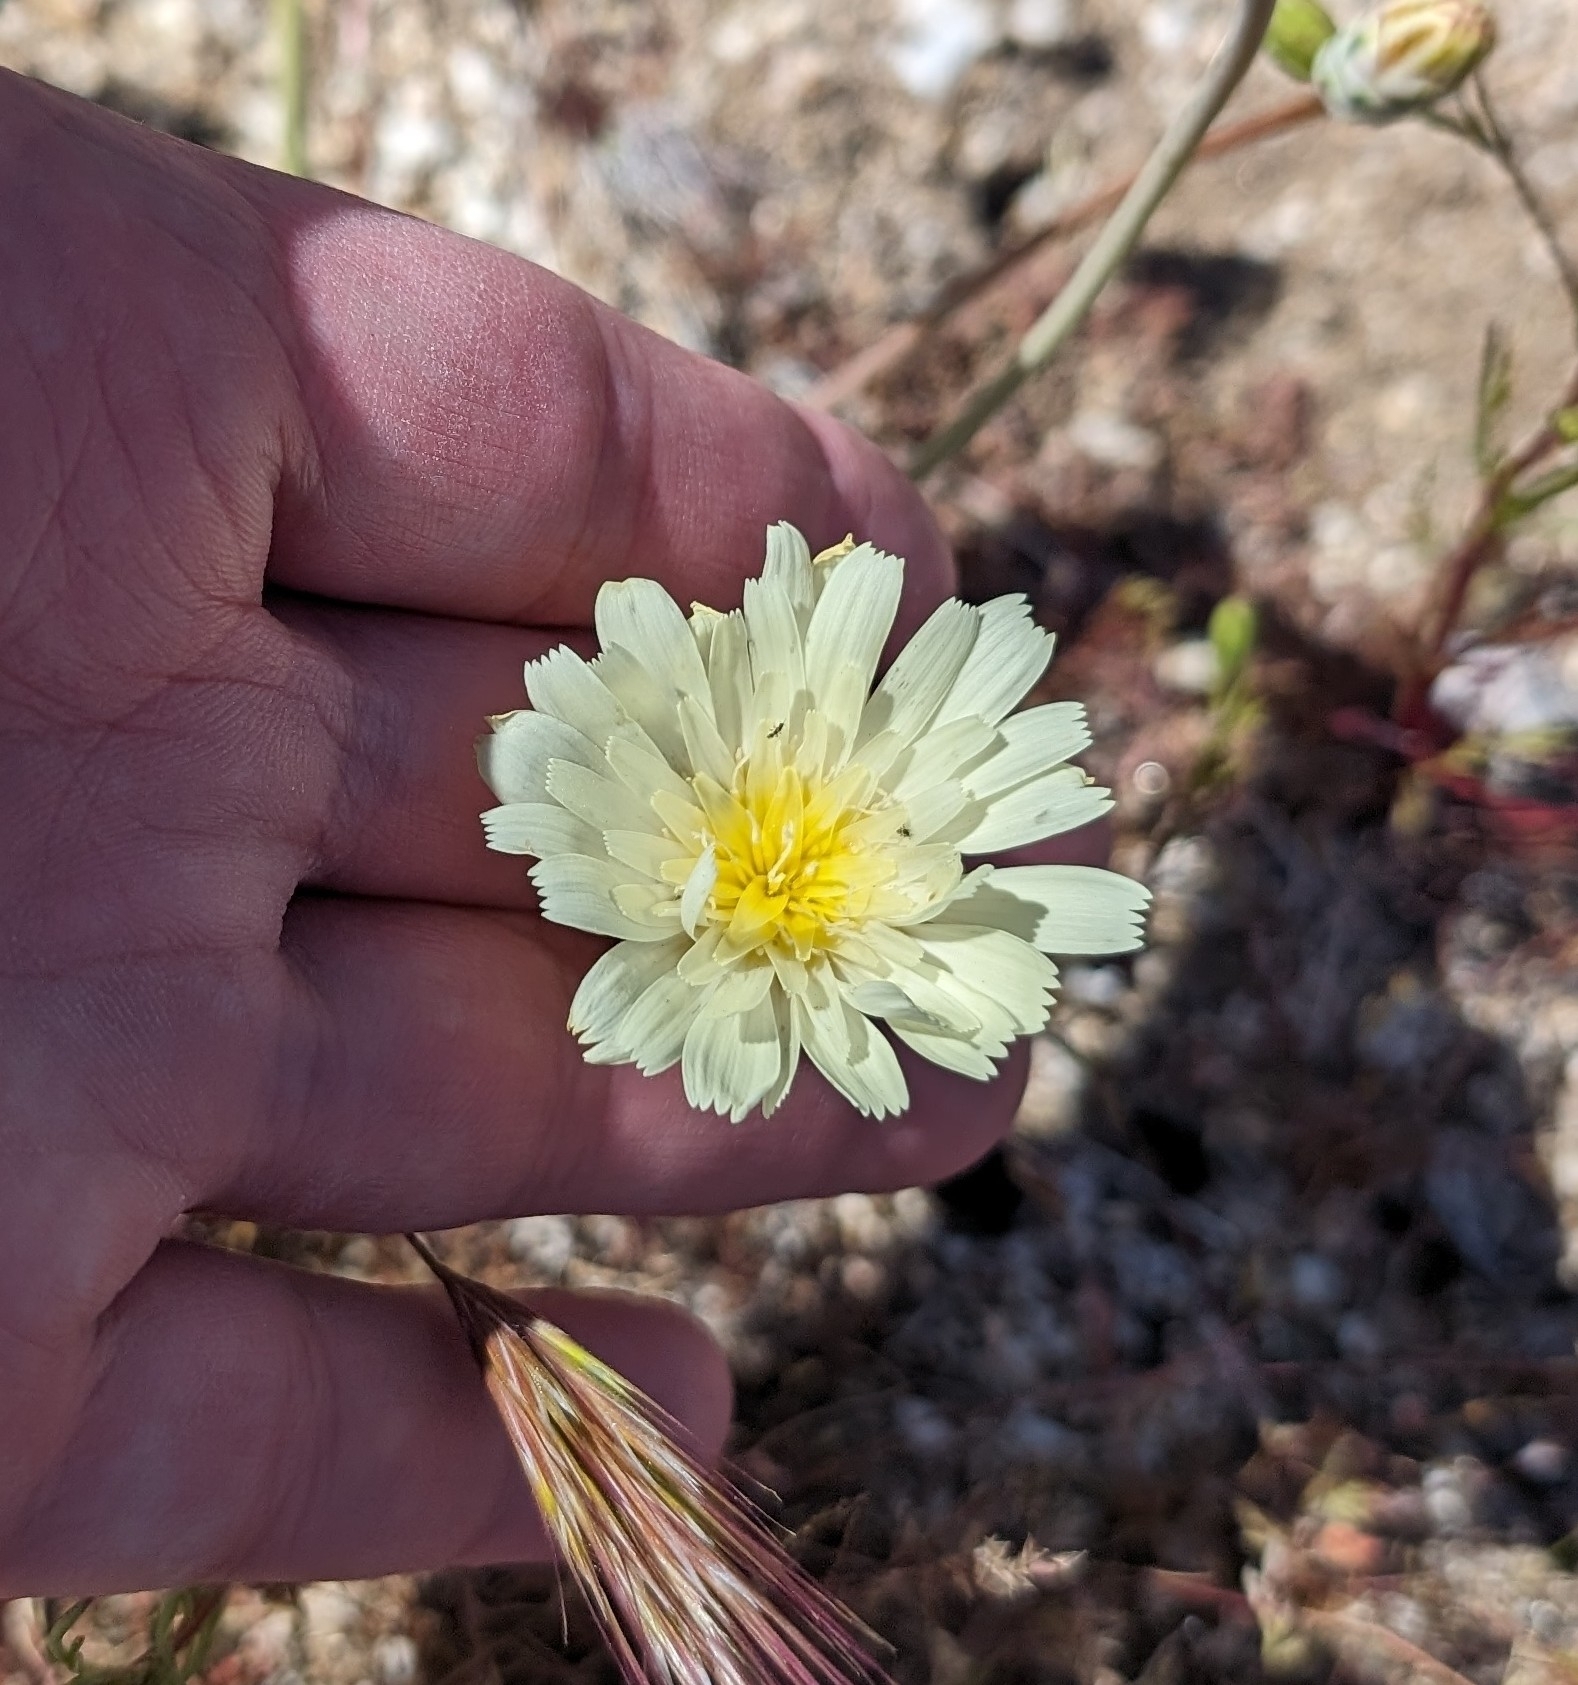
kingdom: Plantae
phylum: Tracheophyta
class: Magnoliopsida
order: Asterales
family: Asteraceae
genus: Anisocoma
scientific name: Anisocoma acaulis
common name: Scalebud
